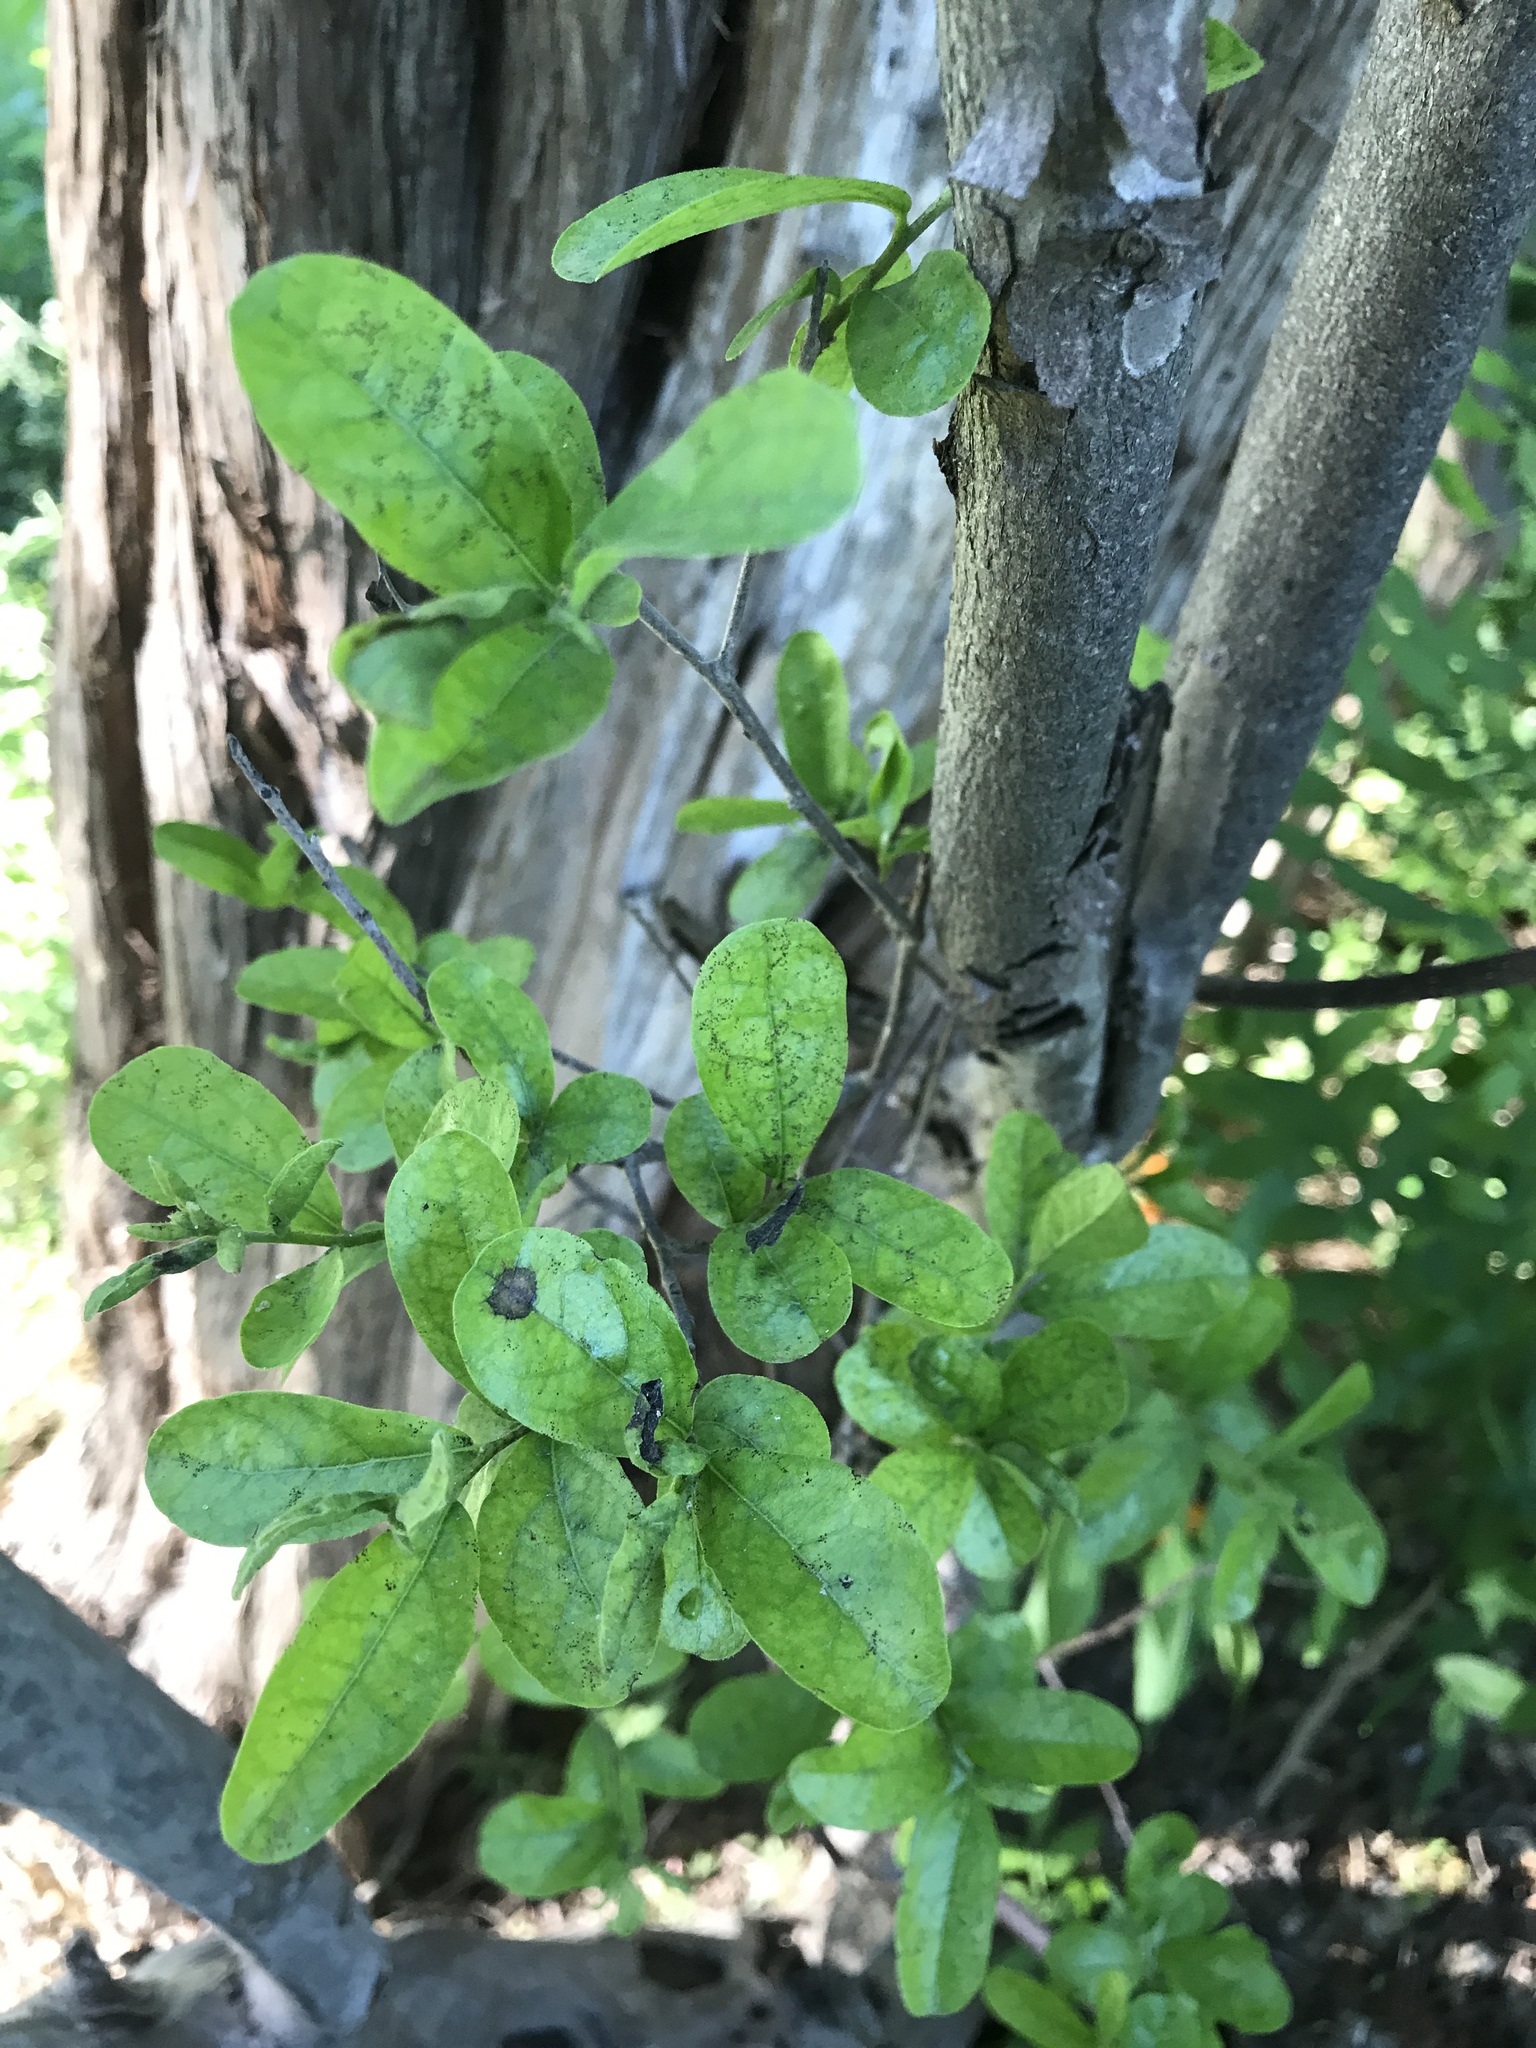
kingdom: Plantae
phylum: Tracheophyta
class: Magnoliopsida
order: Ericales
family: Ebenaceae
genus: Diospyros
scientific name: Diospyros texana
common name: Texas persimmon
